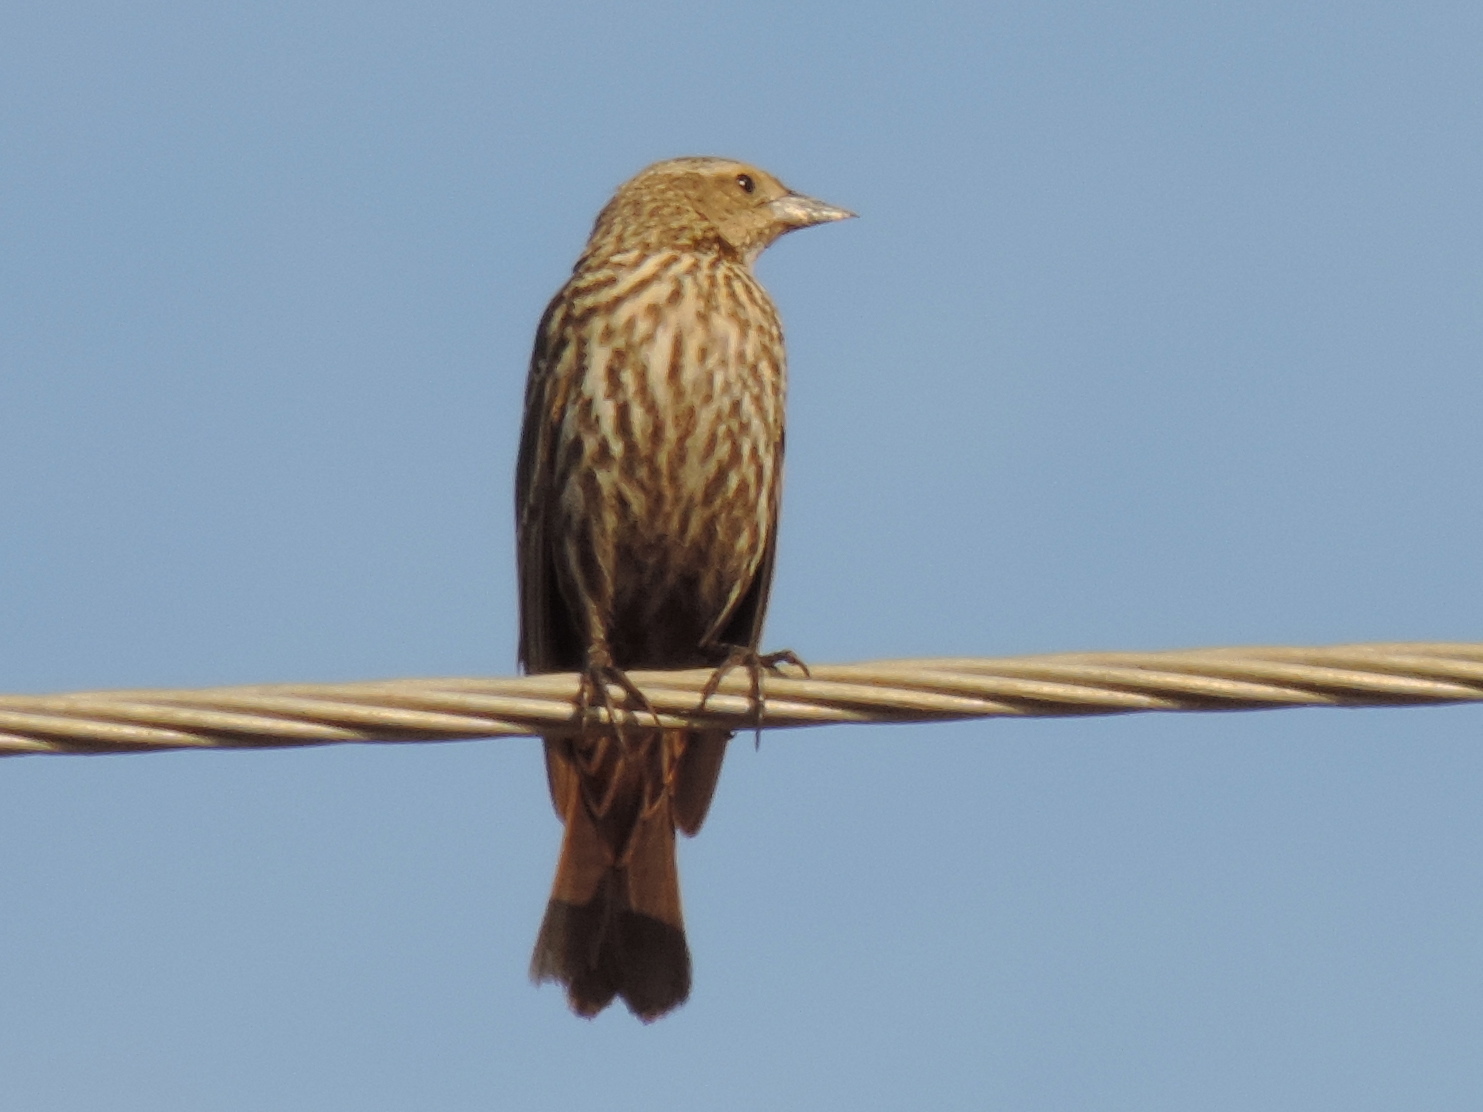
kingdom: Animalia
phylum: Chordata
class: Aves
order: Passeriformes
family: Icteridae
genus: Agelaius
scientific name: Agelaius phoeniceus
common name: Red-winged blackbird
